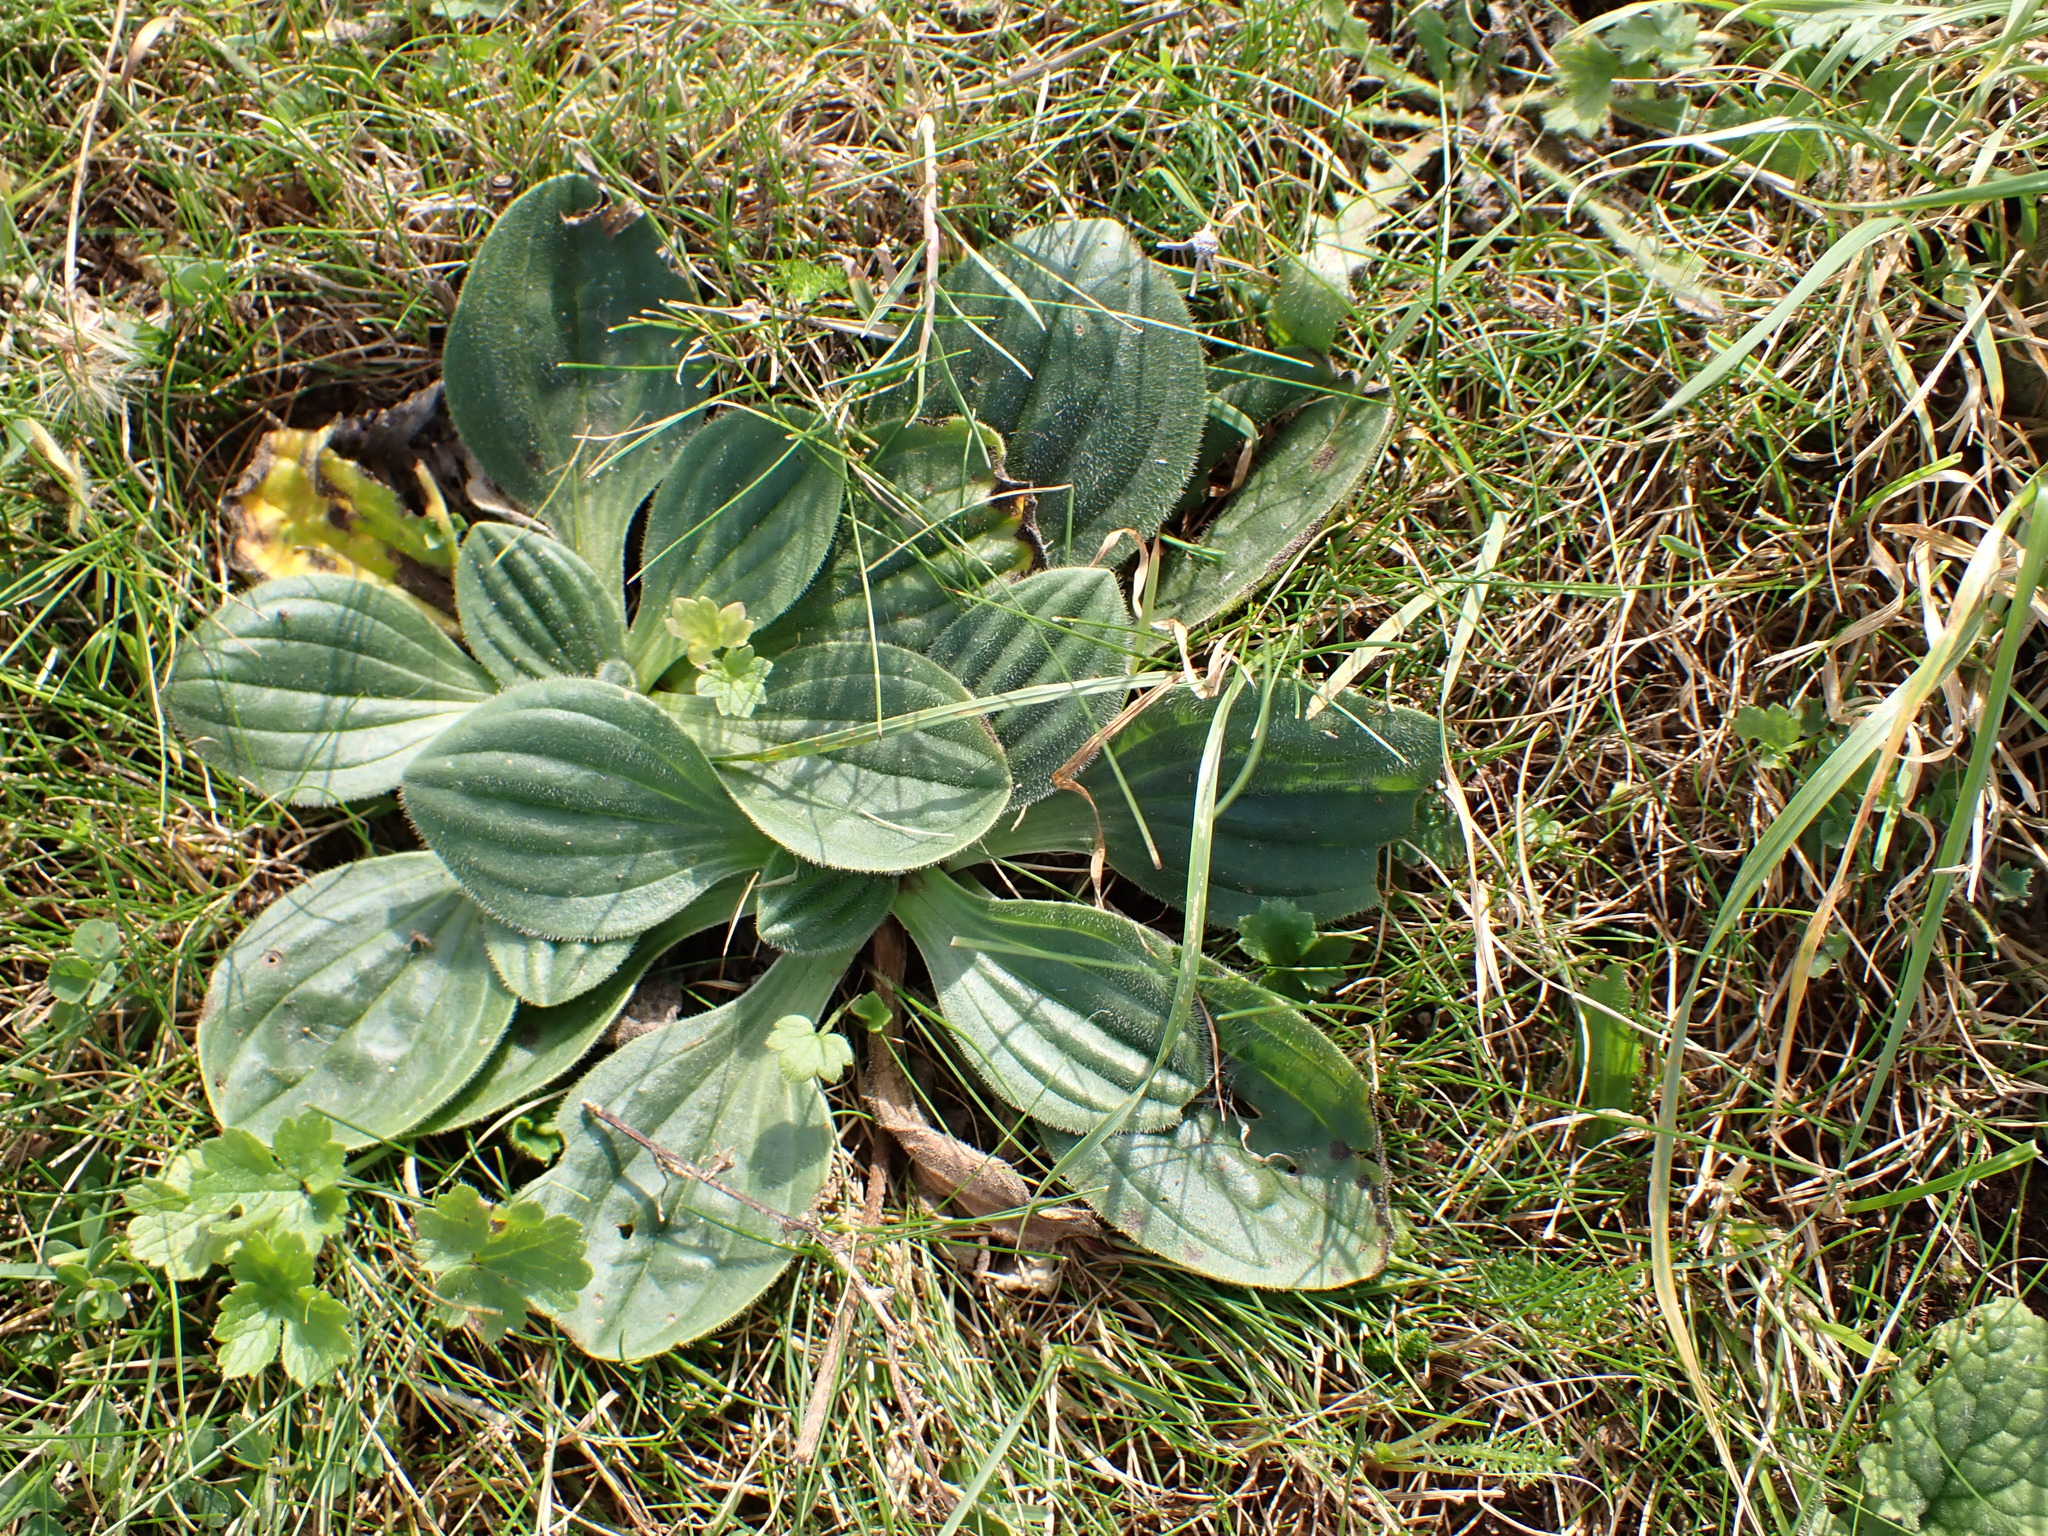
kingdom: Plantae
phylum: Tracheophyta
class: Magnoliopsida
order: Lamiales
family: Plantaginaceae
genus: Plantago
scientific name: Plantago media
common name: Hoary plantain
